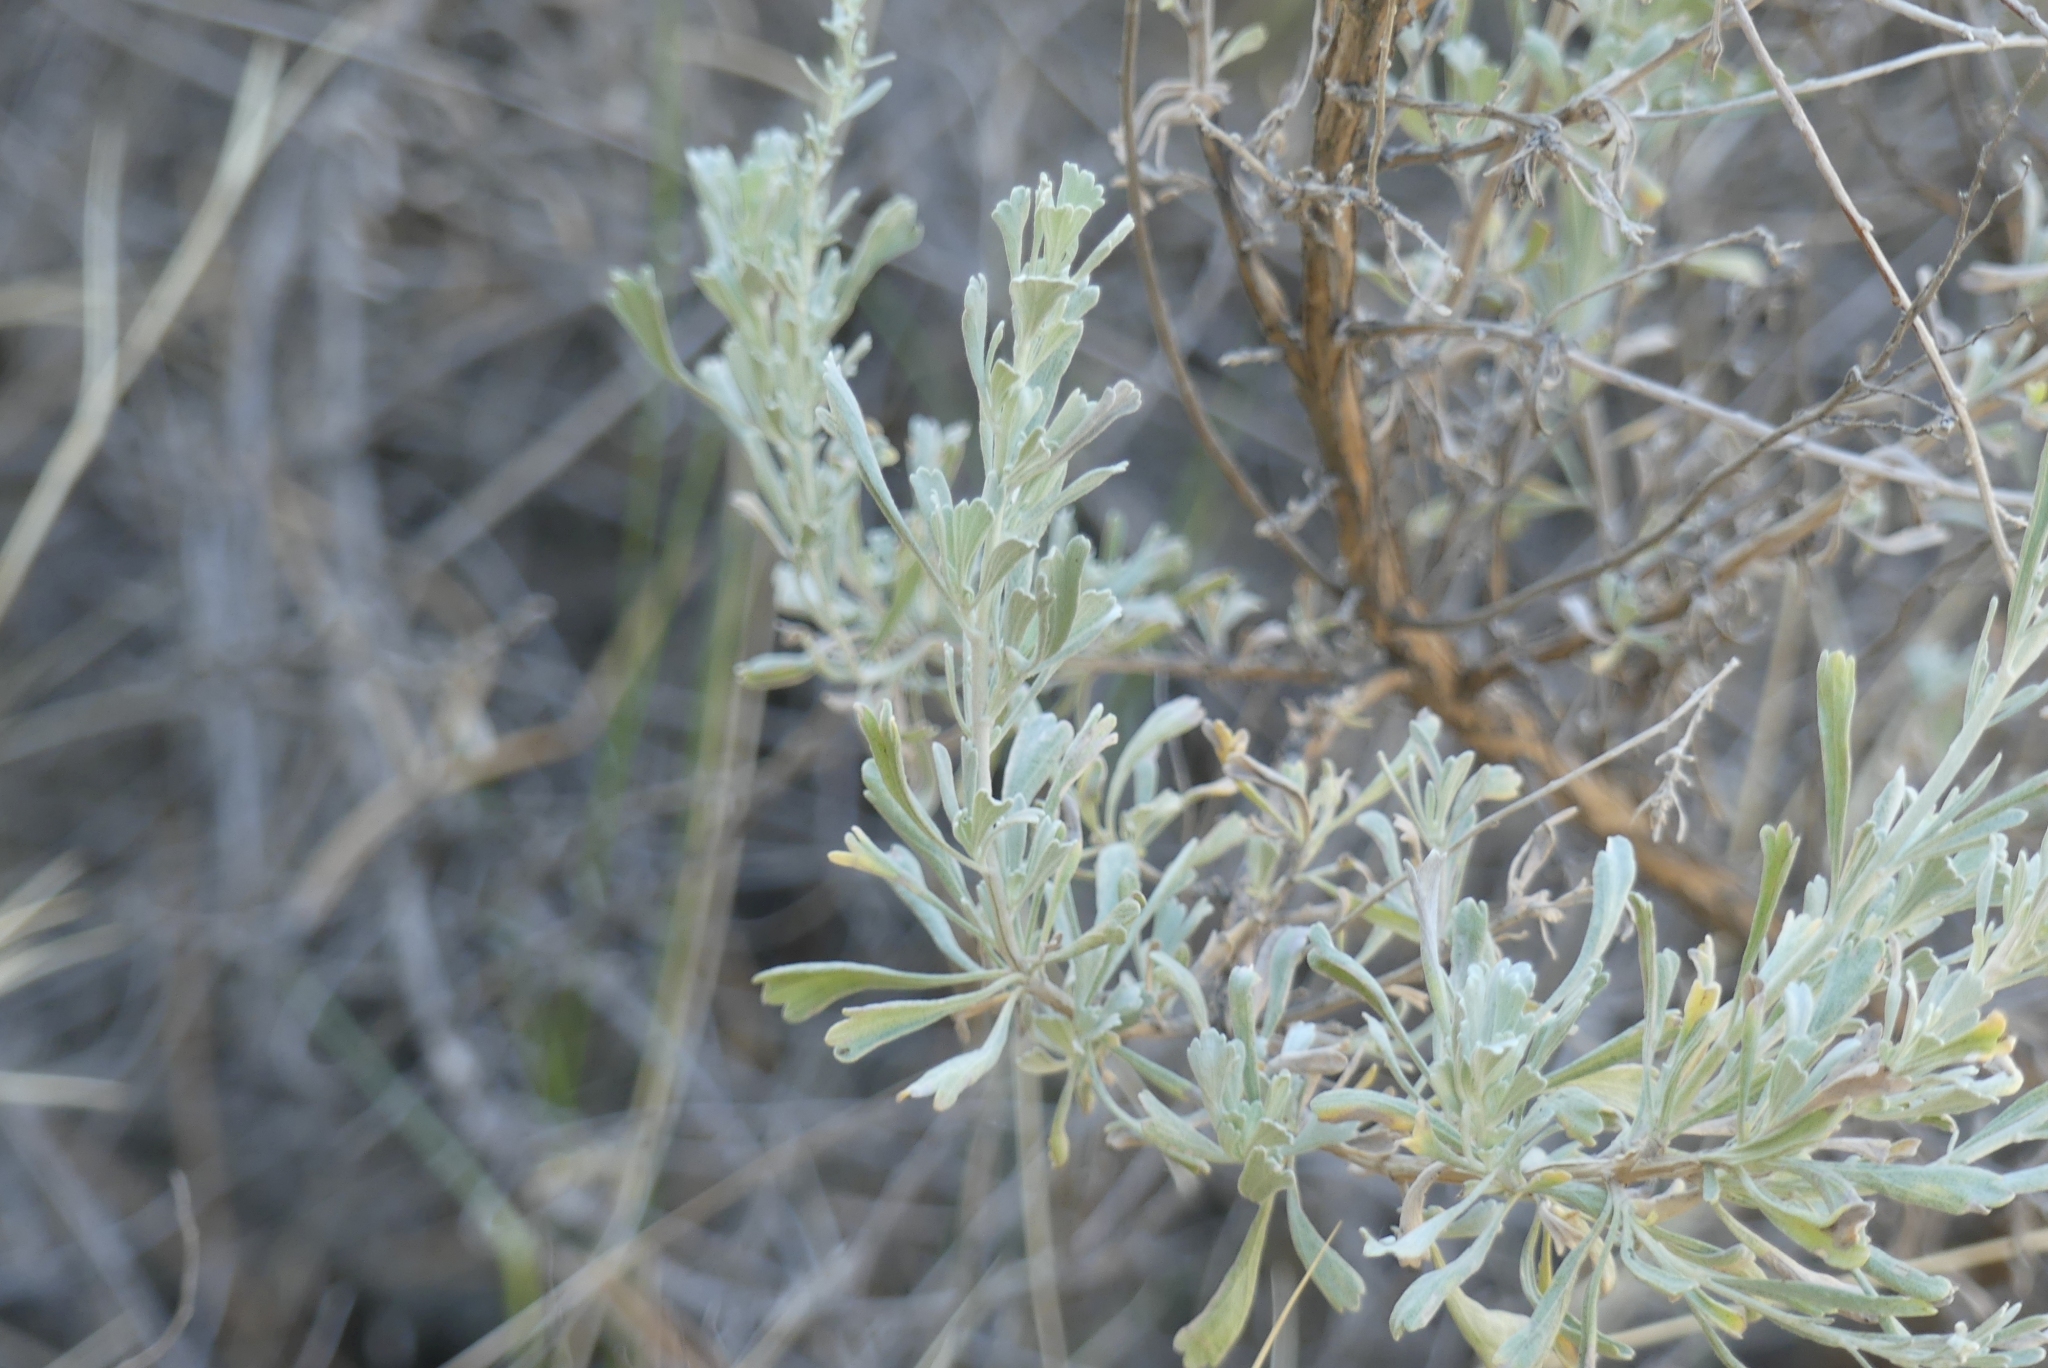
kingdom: Plantae
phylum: Tracheophyta
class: Magnoliopsida
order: Asterales
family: Asteraceae
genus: Artemisia
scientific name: Artemisia tridentata
